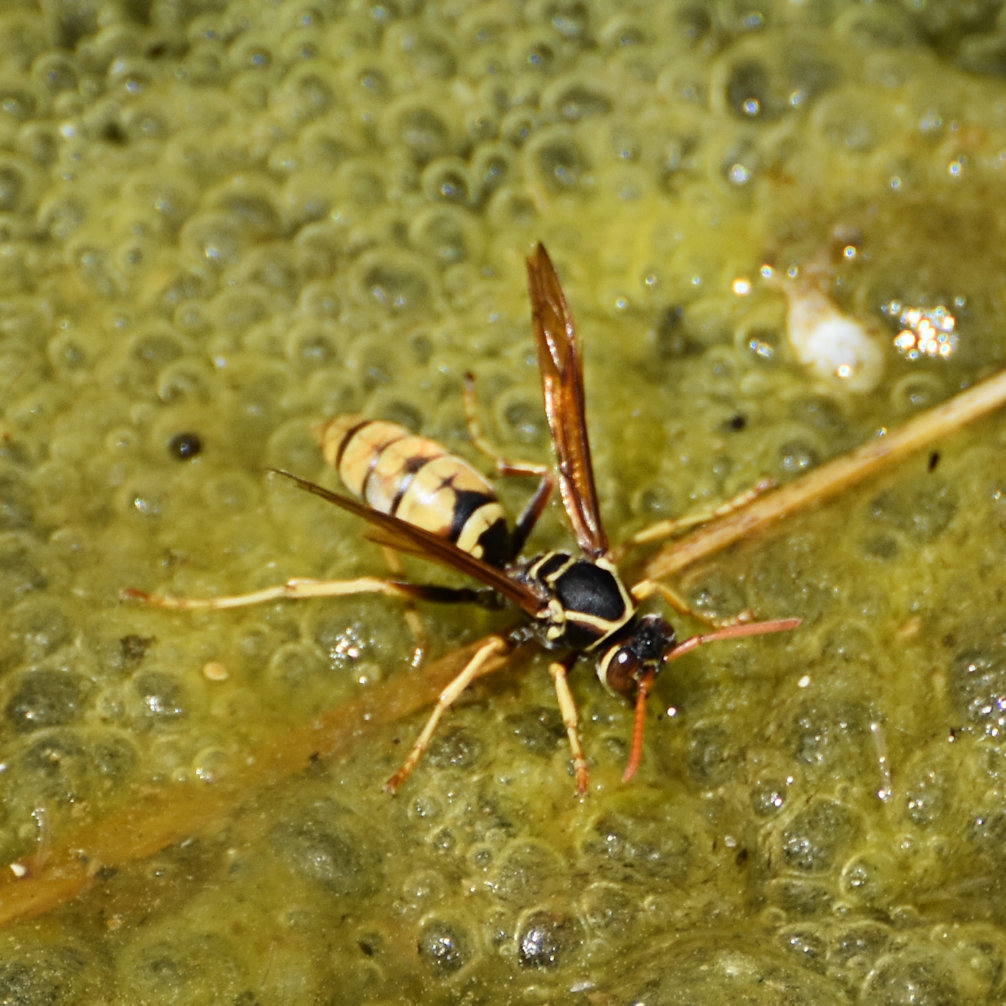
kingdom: Animalia
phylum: Arthropoda
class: Insecta
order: Hymenoptera
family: Eumenidae
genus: Polistes
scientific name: Polistes aurifer
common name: Paper wasp
